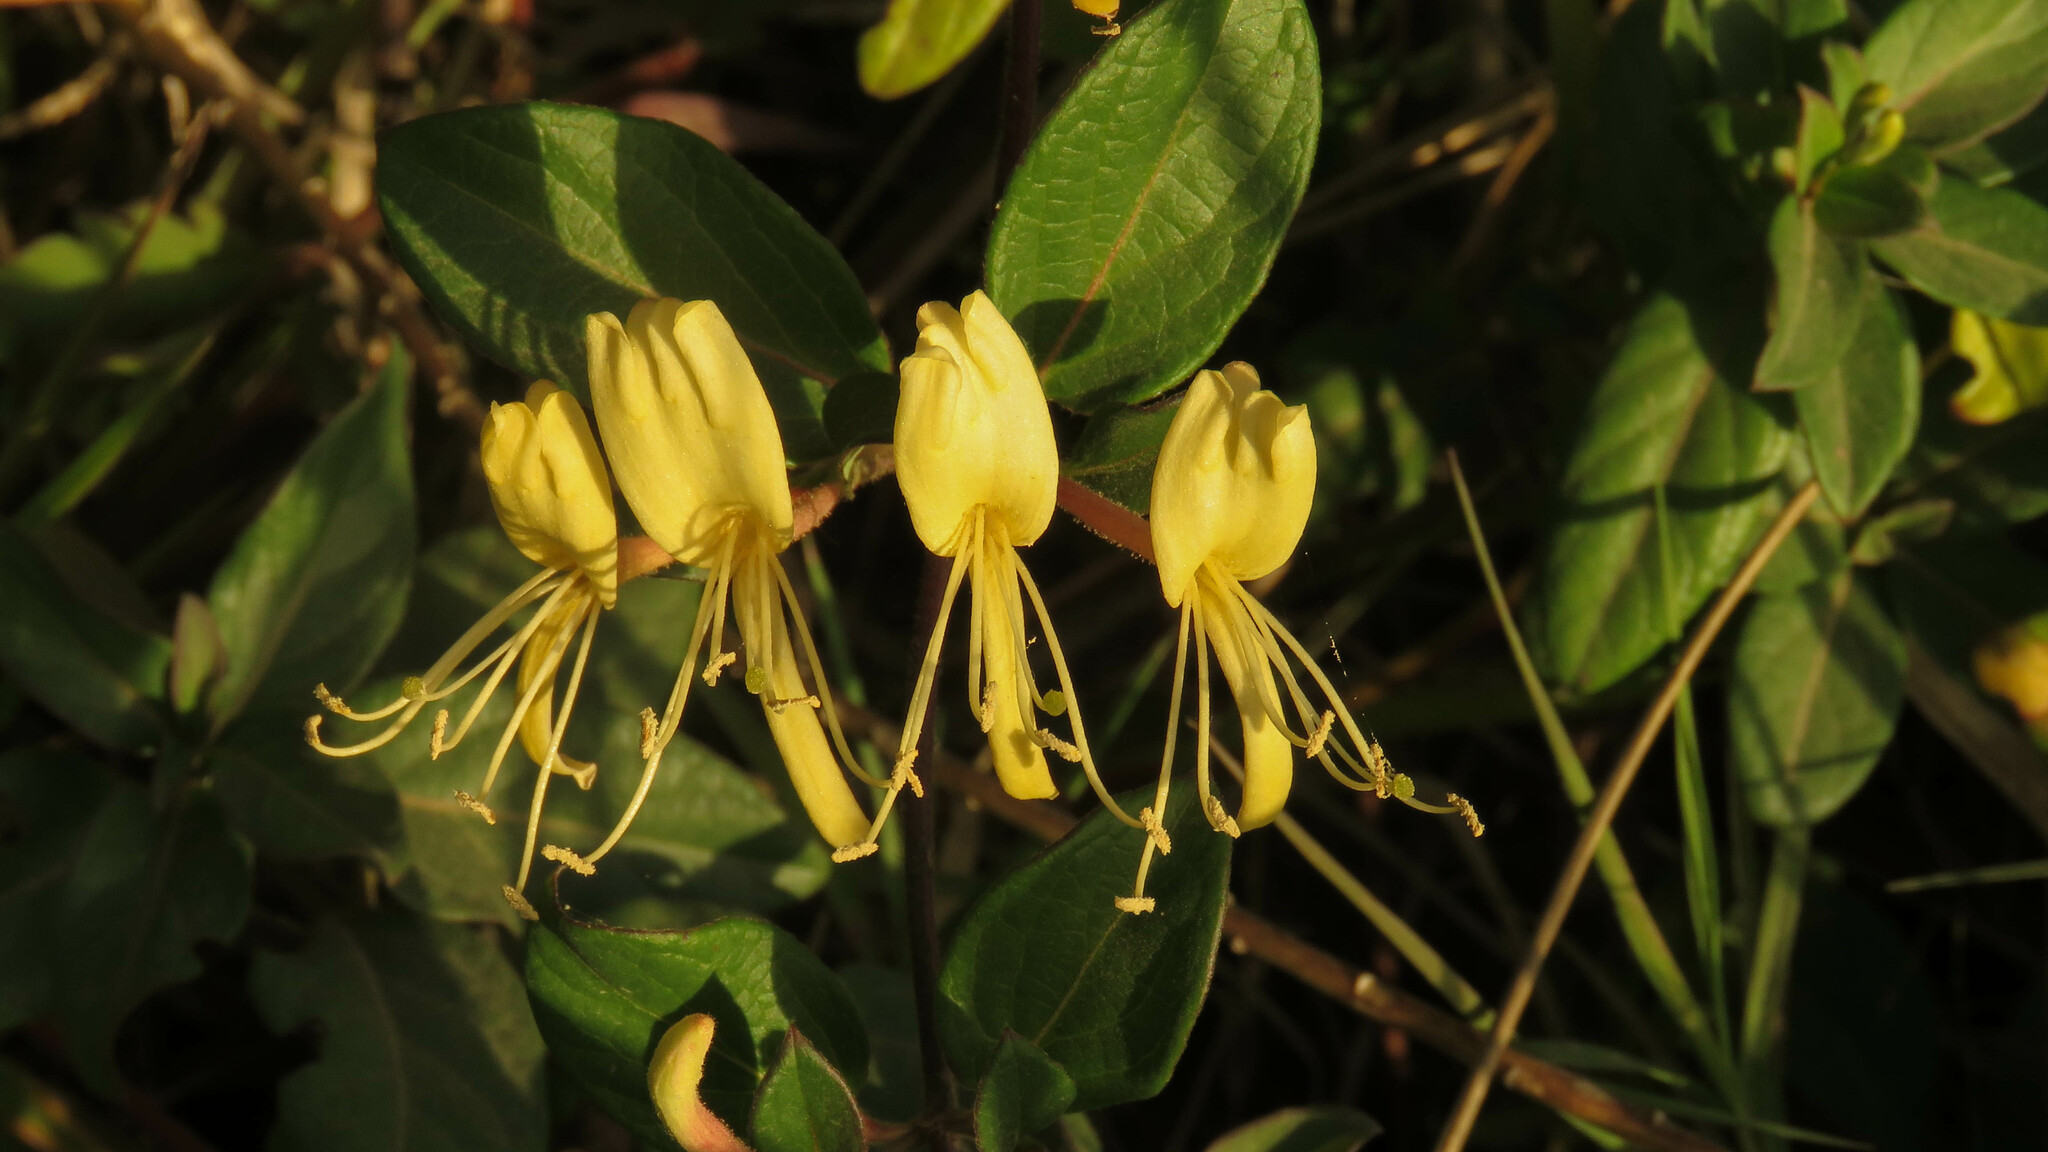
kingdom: Plantae
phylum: Tracheophyta
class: Magnoliopsida
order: Dipsacales
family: Caprifoliaceae
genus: Lonicera
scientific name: Lonicera japonica
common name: Japanese honeysuckle
